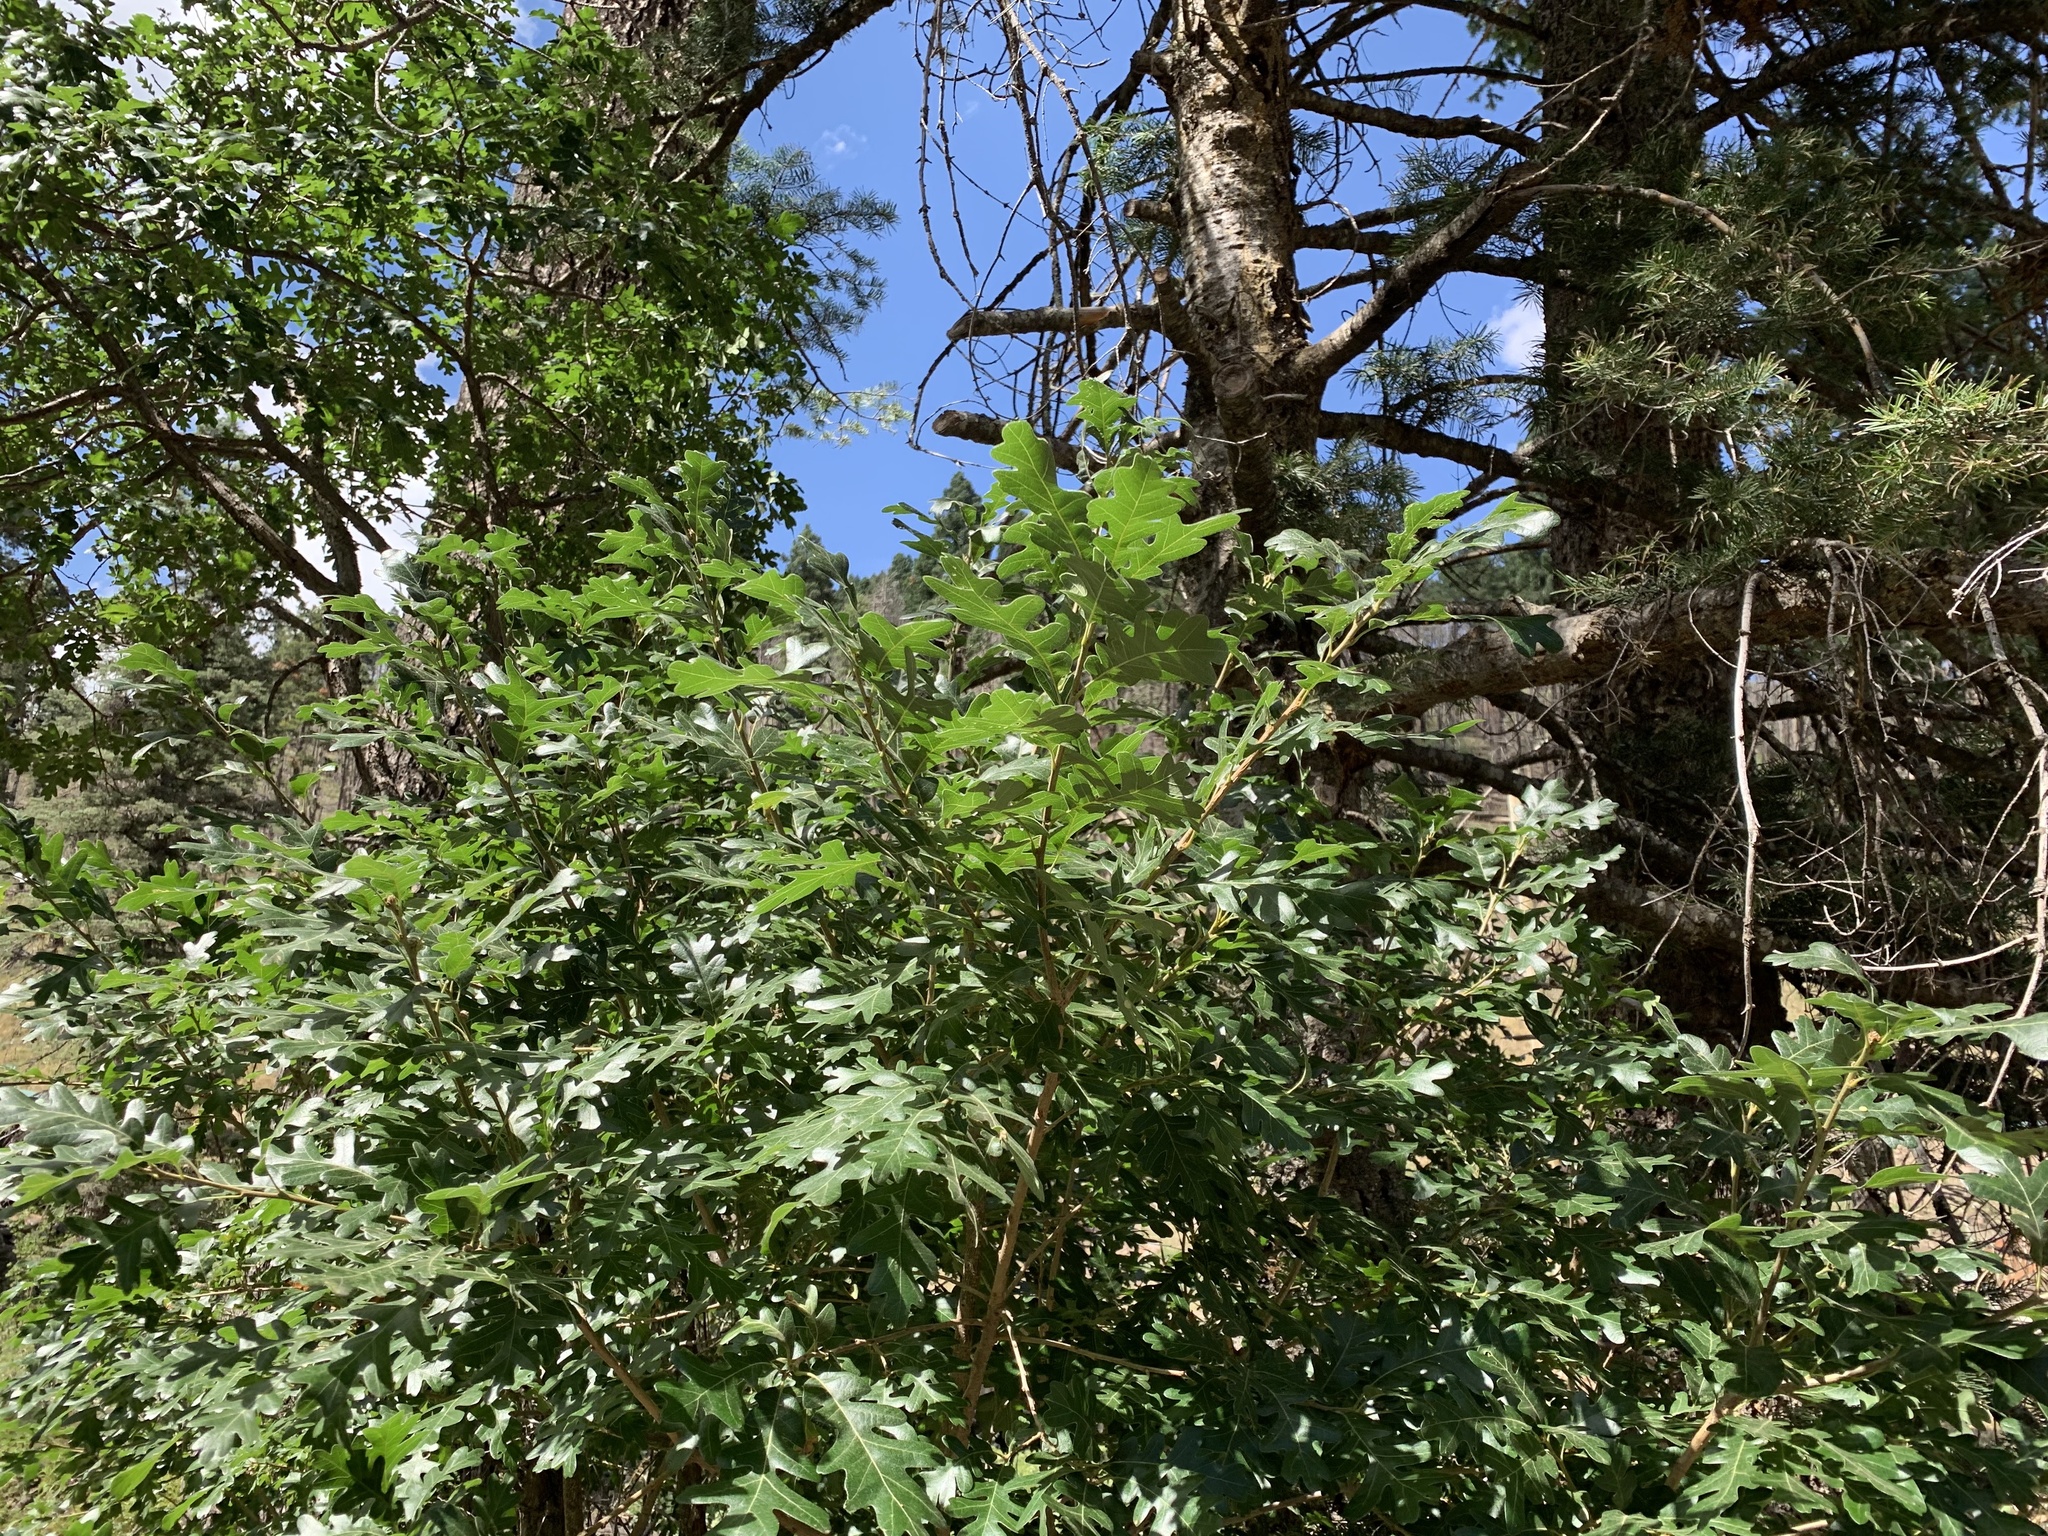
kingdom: Plantae
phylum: Tracheophyta
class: Magnoliopsida
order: Fagales
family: Fagaceae
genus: Quercus
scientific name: Quercus gambelii
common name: Gambel oak
